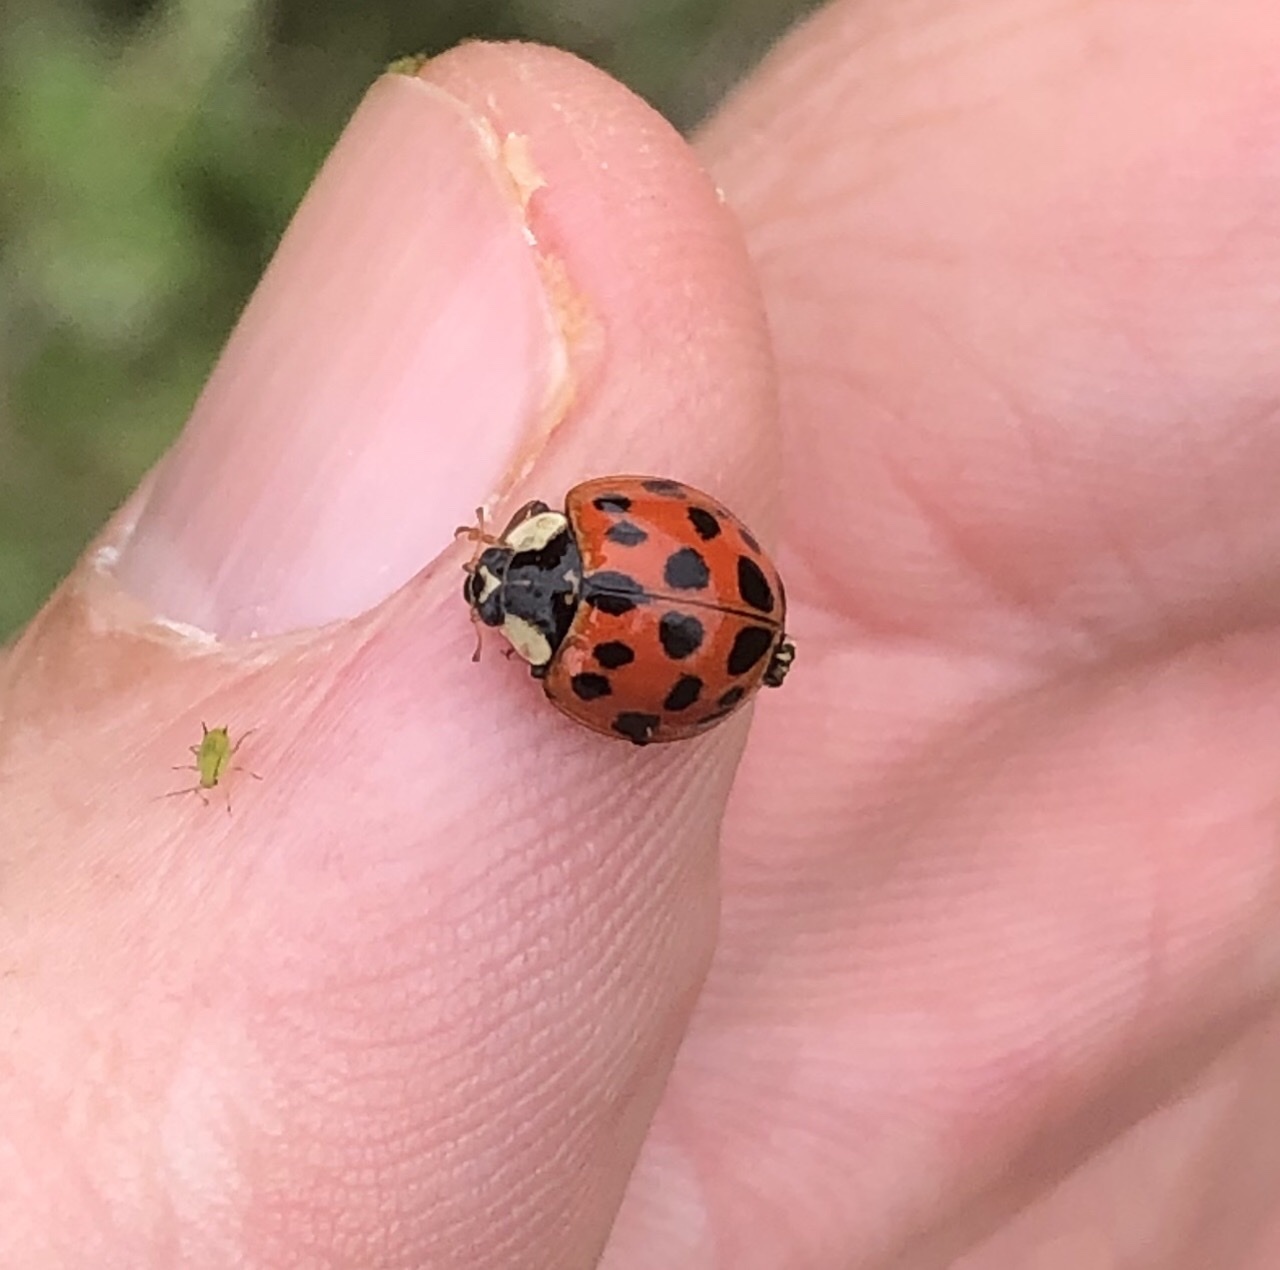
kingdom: Animalia
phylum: Arthropoda
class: Insecta
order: Coleoptera
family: Coccinellidae
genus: Harmonia
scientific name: Harmonia axyridis
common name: Harlequin ladybird
